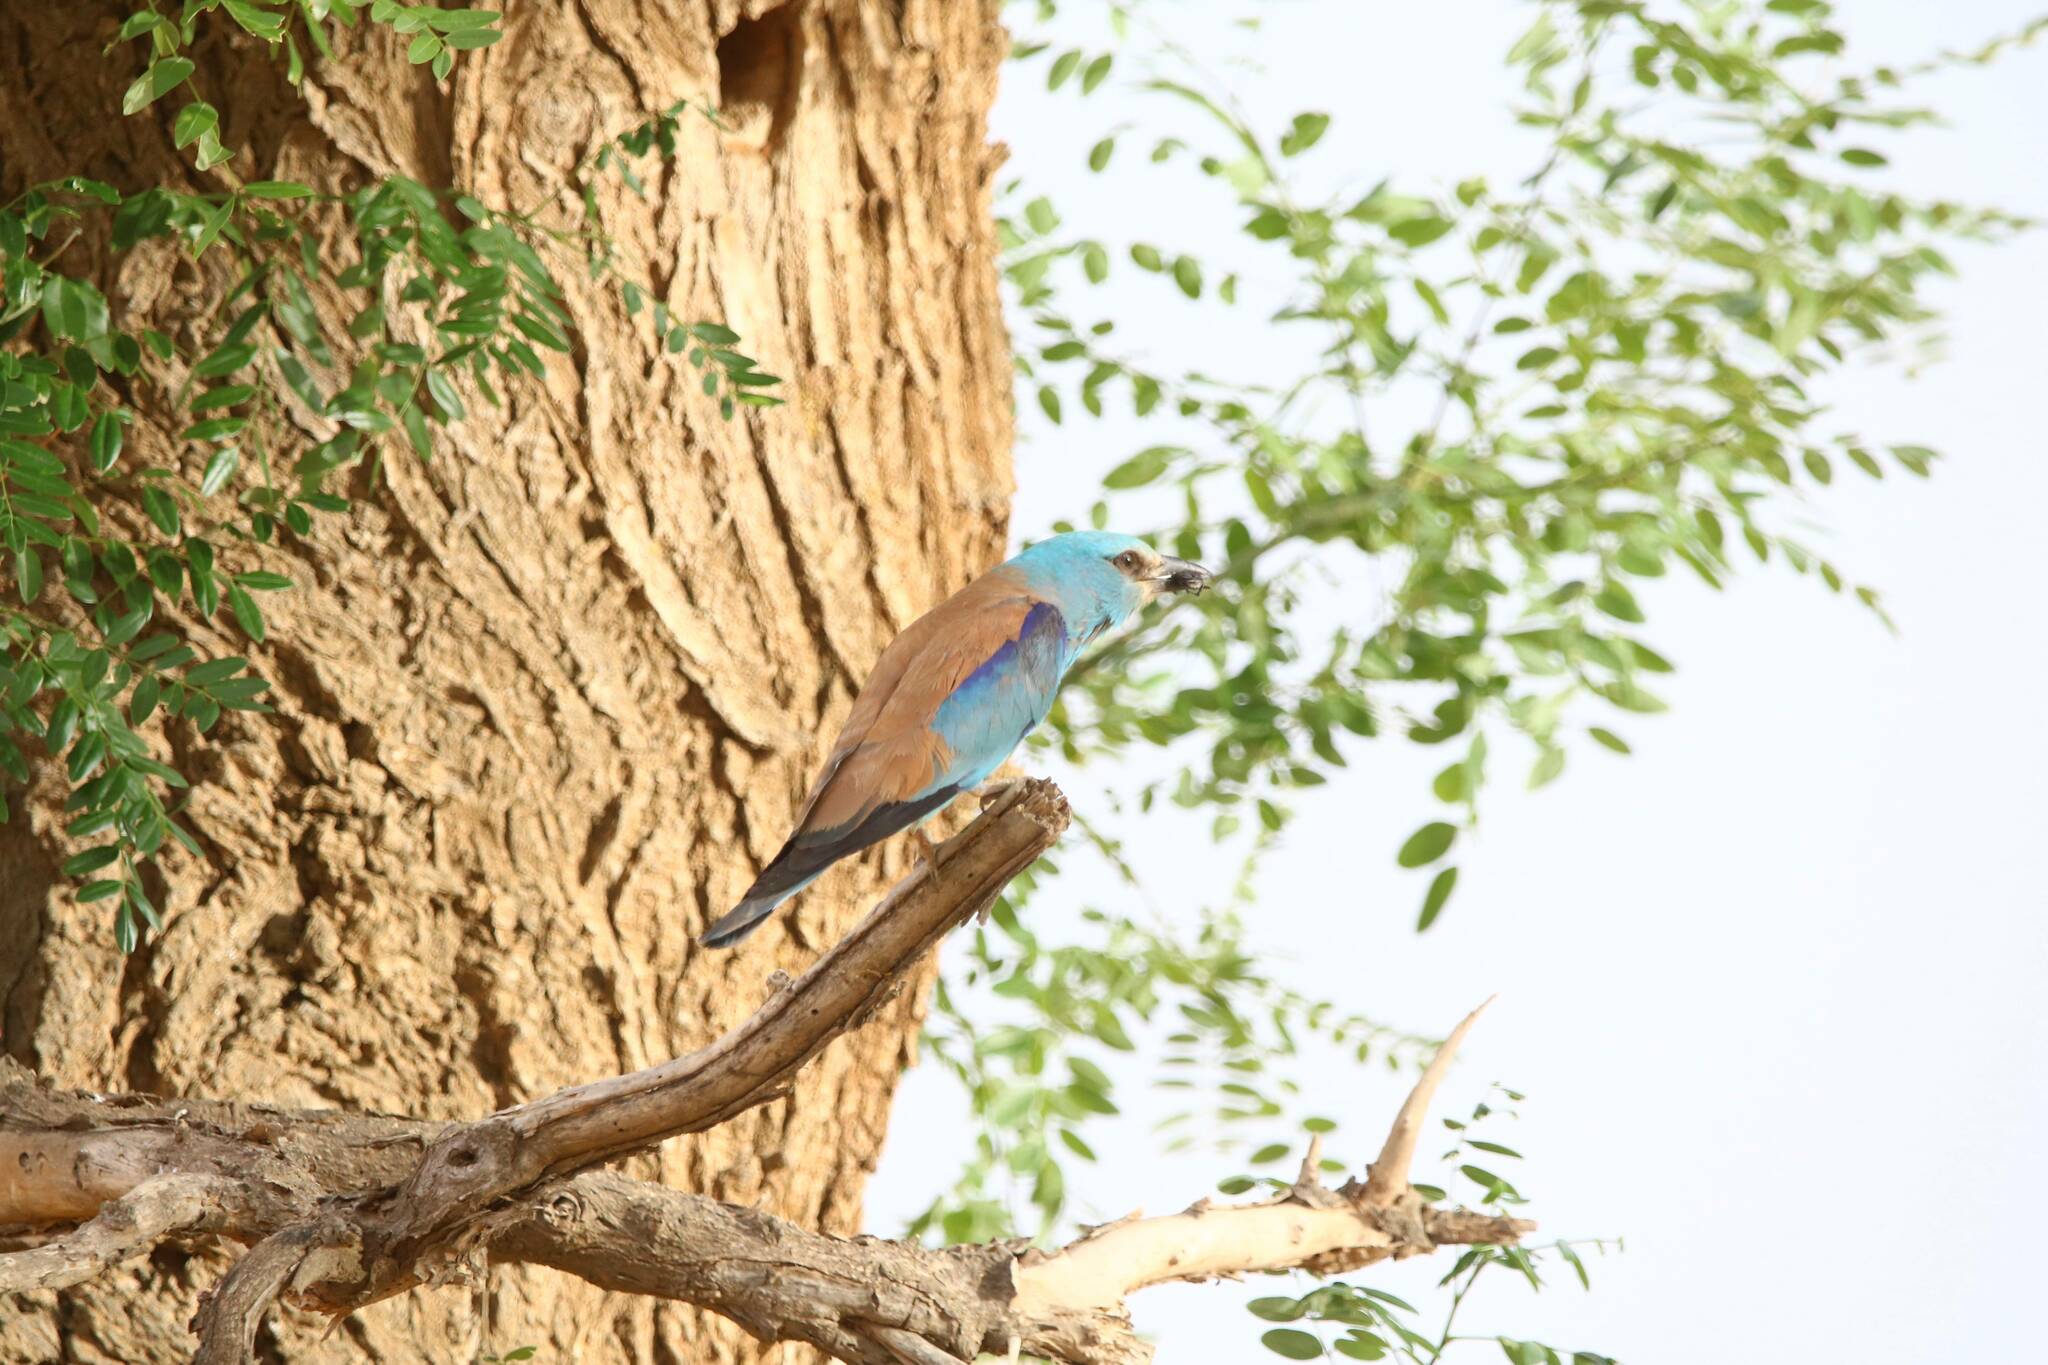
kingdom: Animalia
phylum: Chordata
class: Aves
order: Coraciiformes
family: Coraciidae
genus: Coracias
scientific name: Coracias garrulus
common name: European roller
